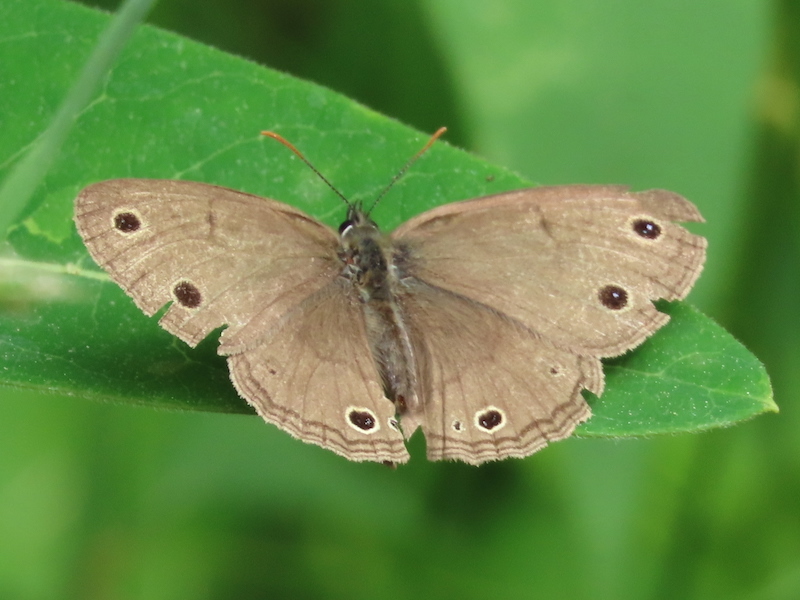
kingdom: Animalia
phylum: Arthropoda
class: Insecta
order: Lepidoptera
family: Nymphalidae
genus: Euptychia
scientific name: Euptychia cymela
